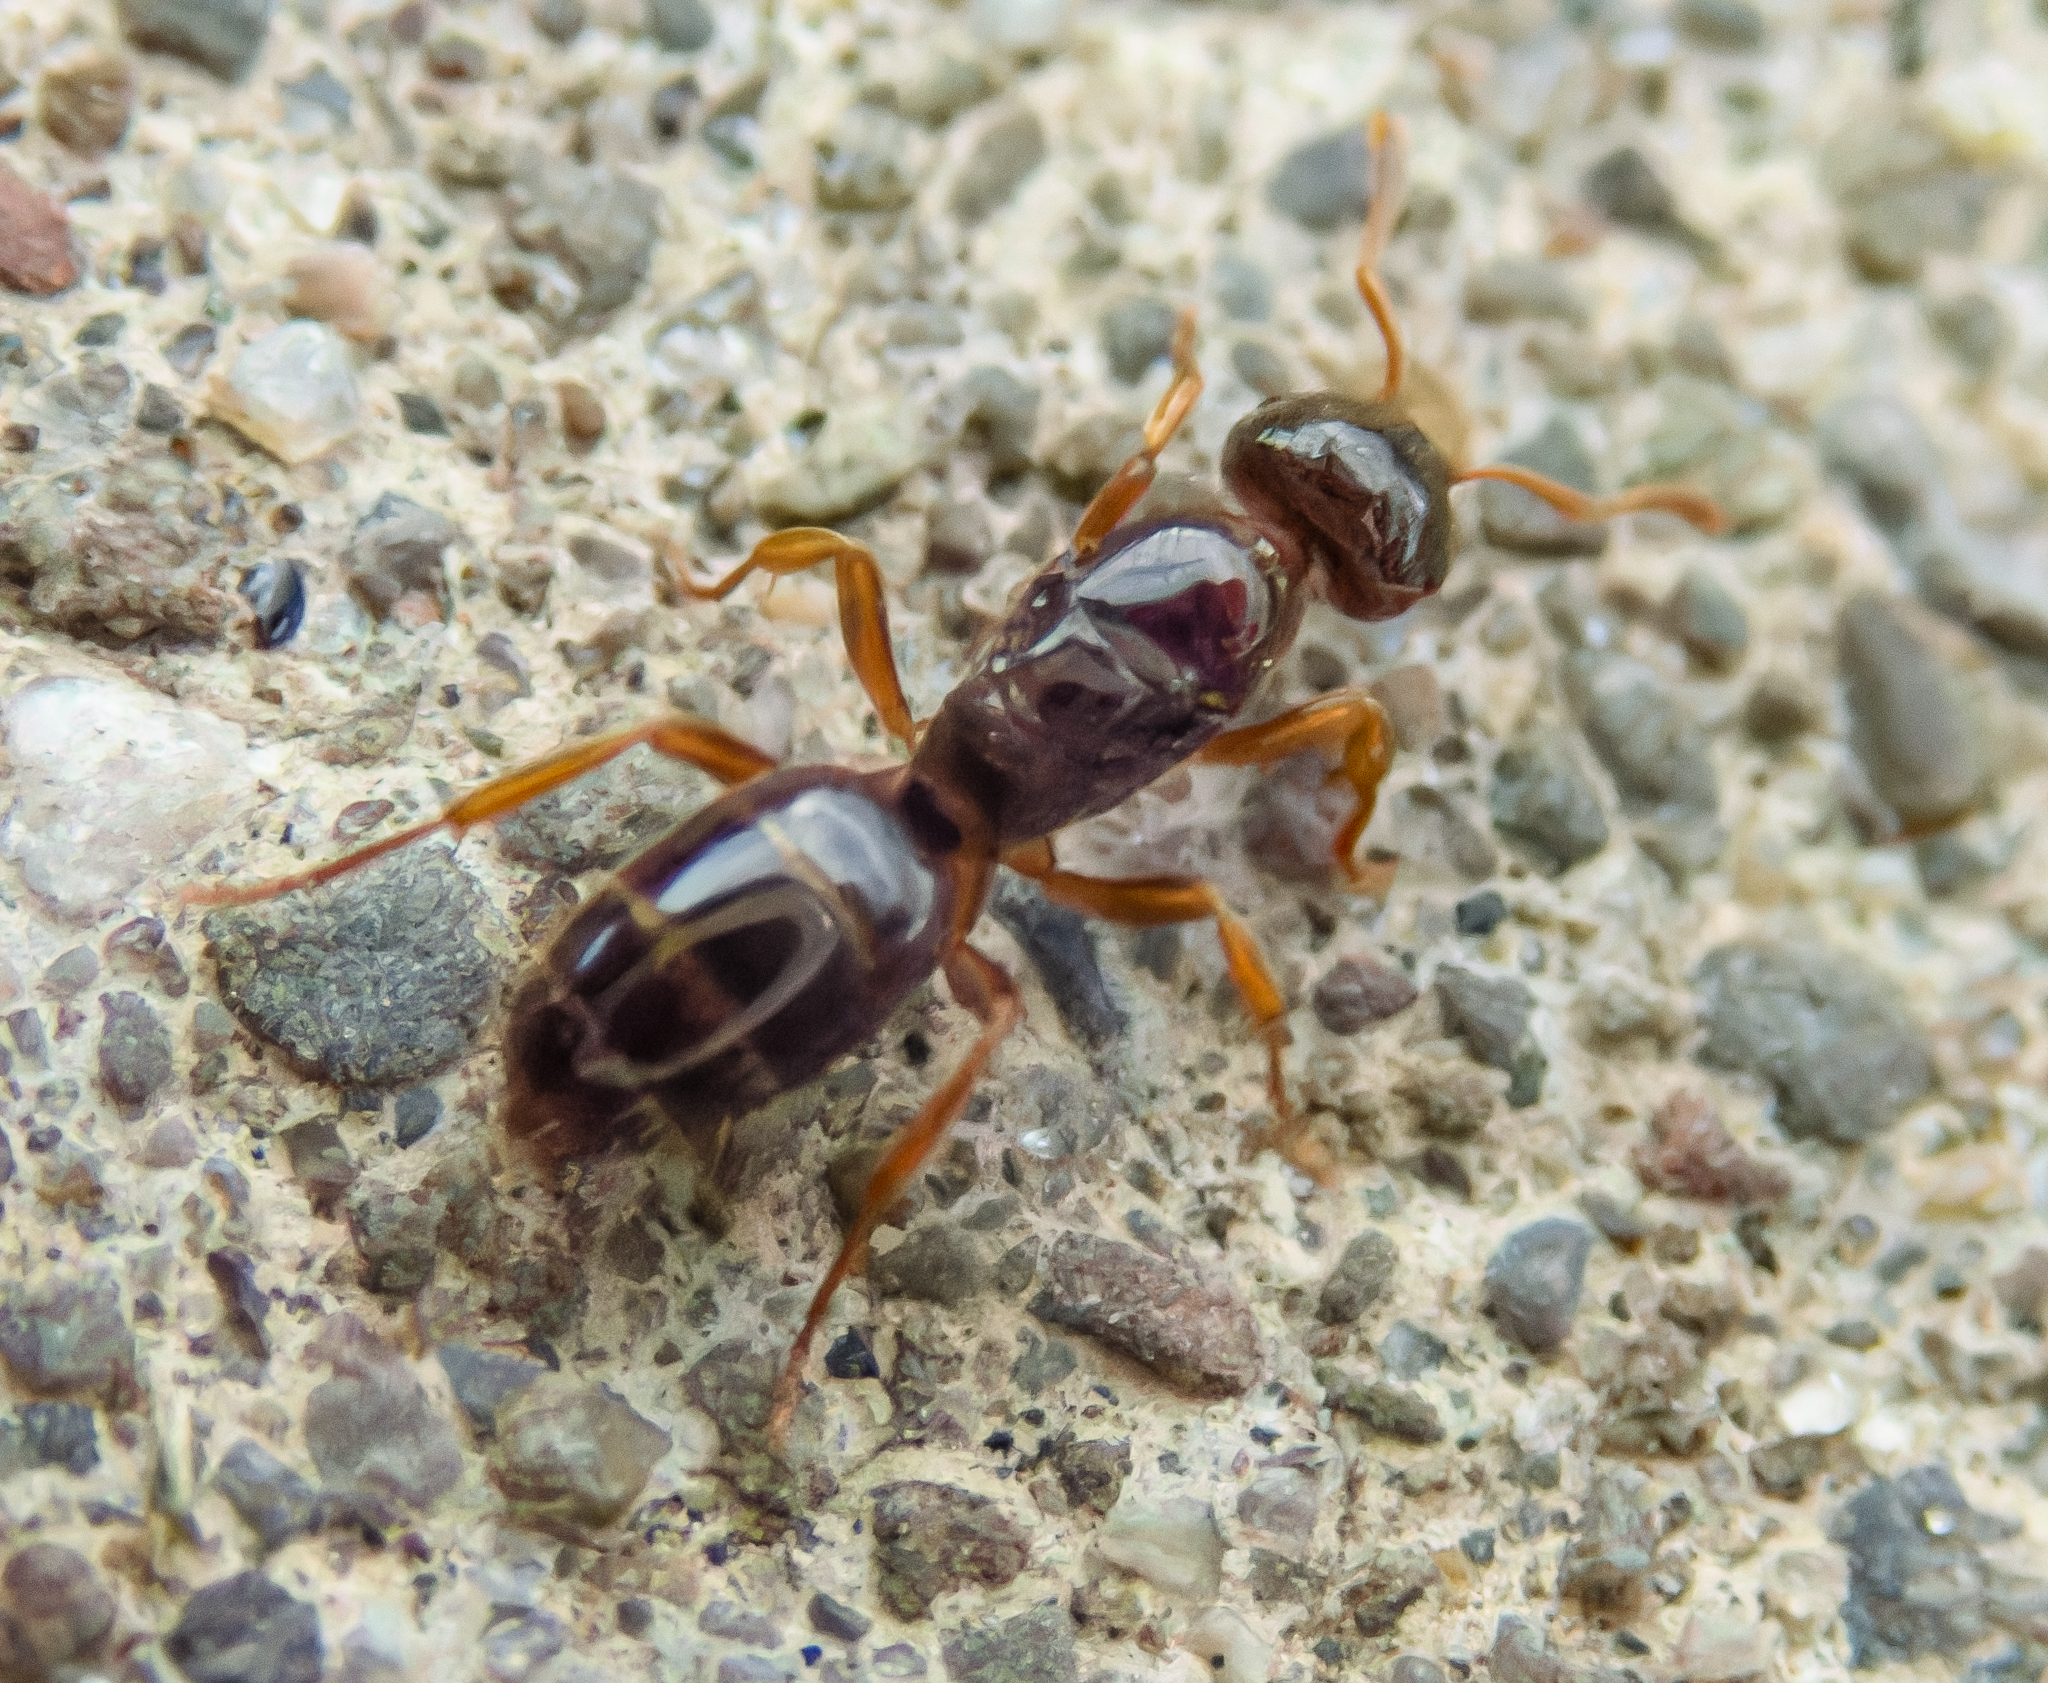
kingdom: Animalia
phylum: Arthropoda
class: Insecta
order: Hymenoptera
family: Formicidae
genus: Lasius
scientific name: Lasius claviger
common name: Common citronella ant
